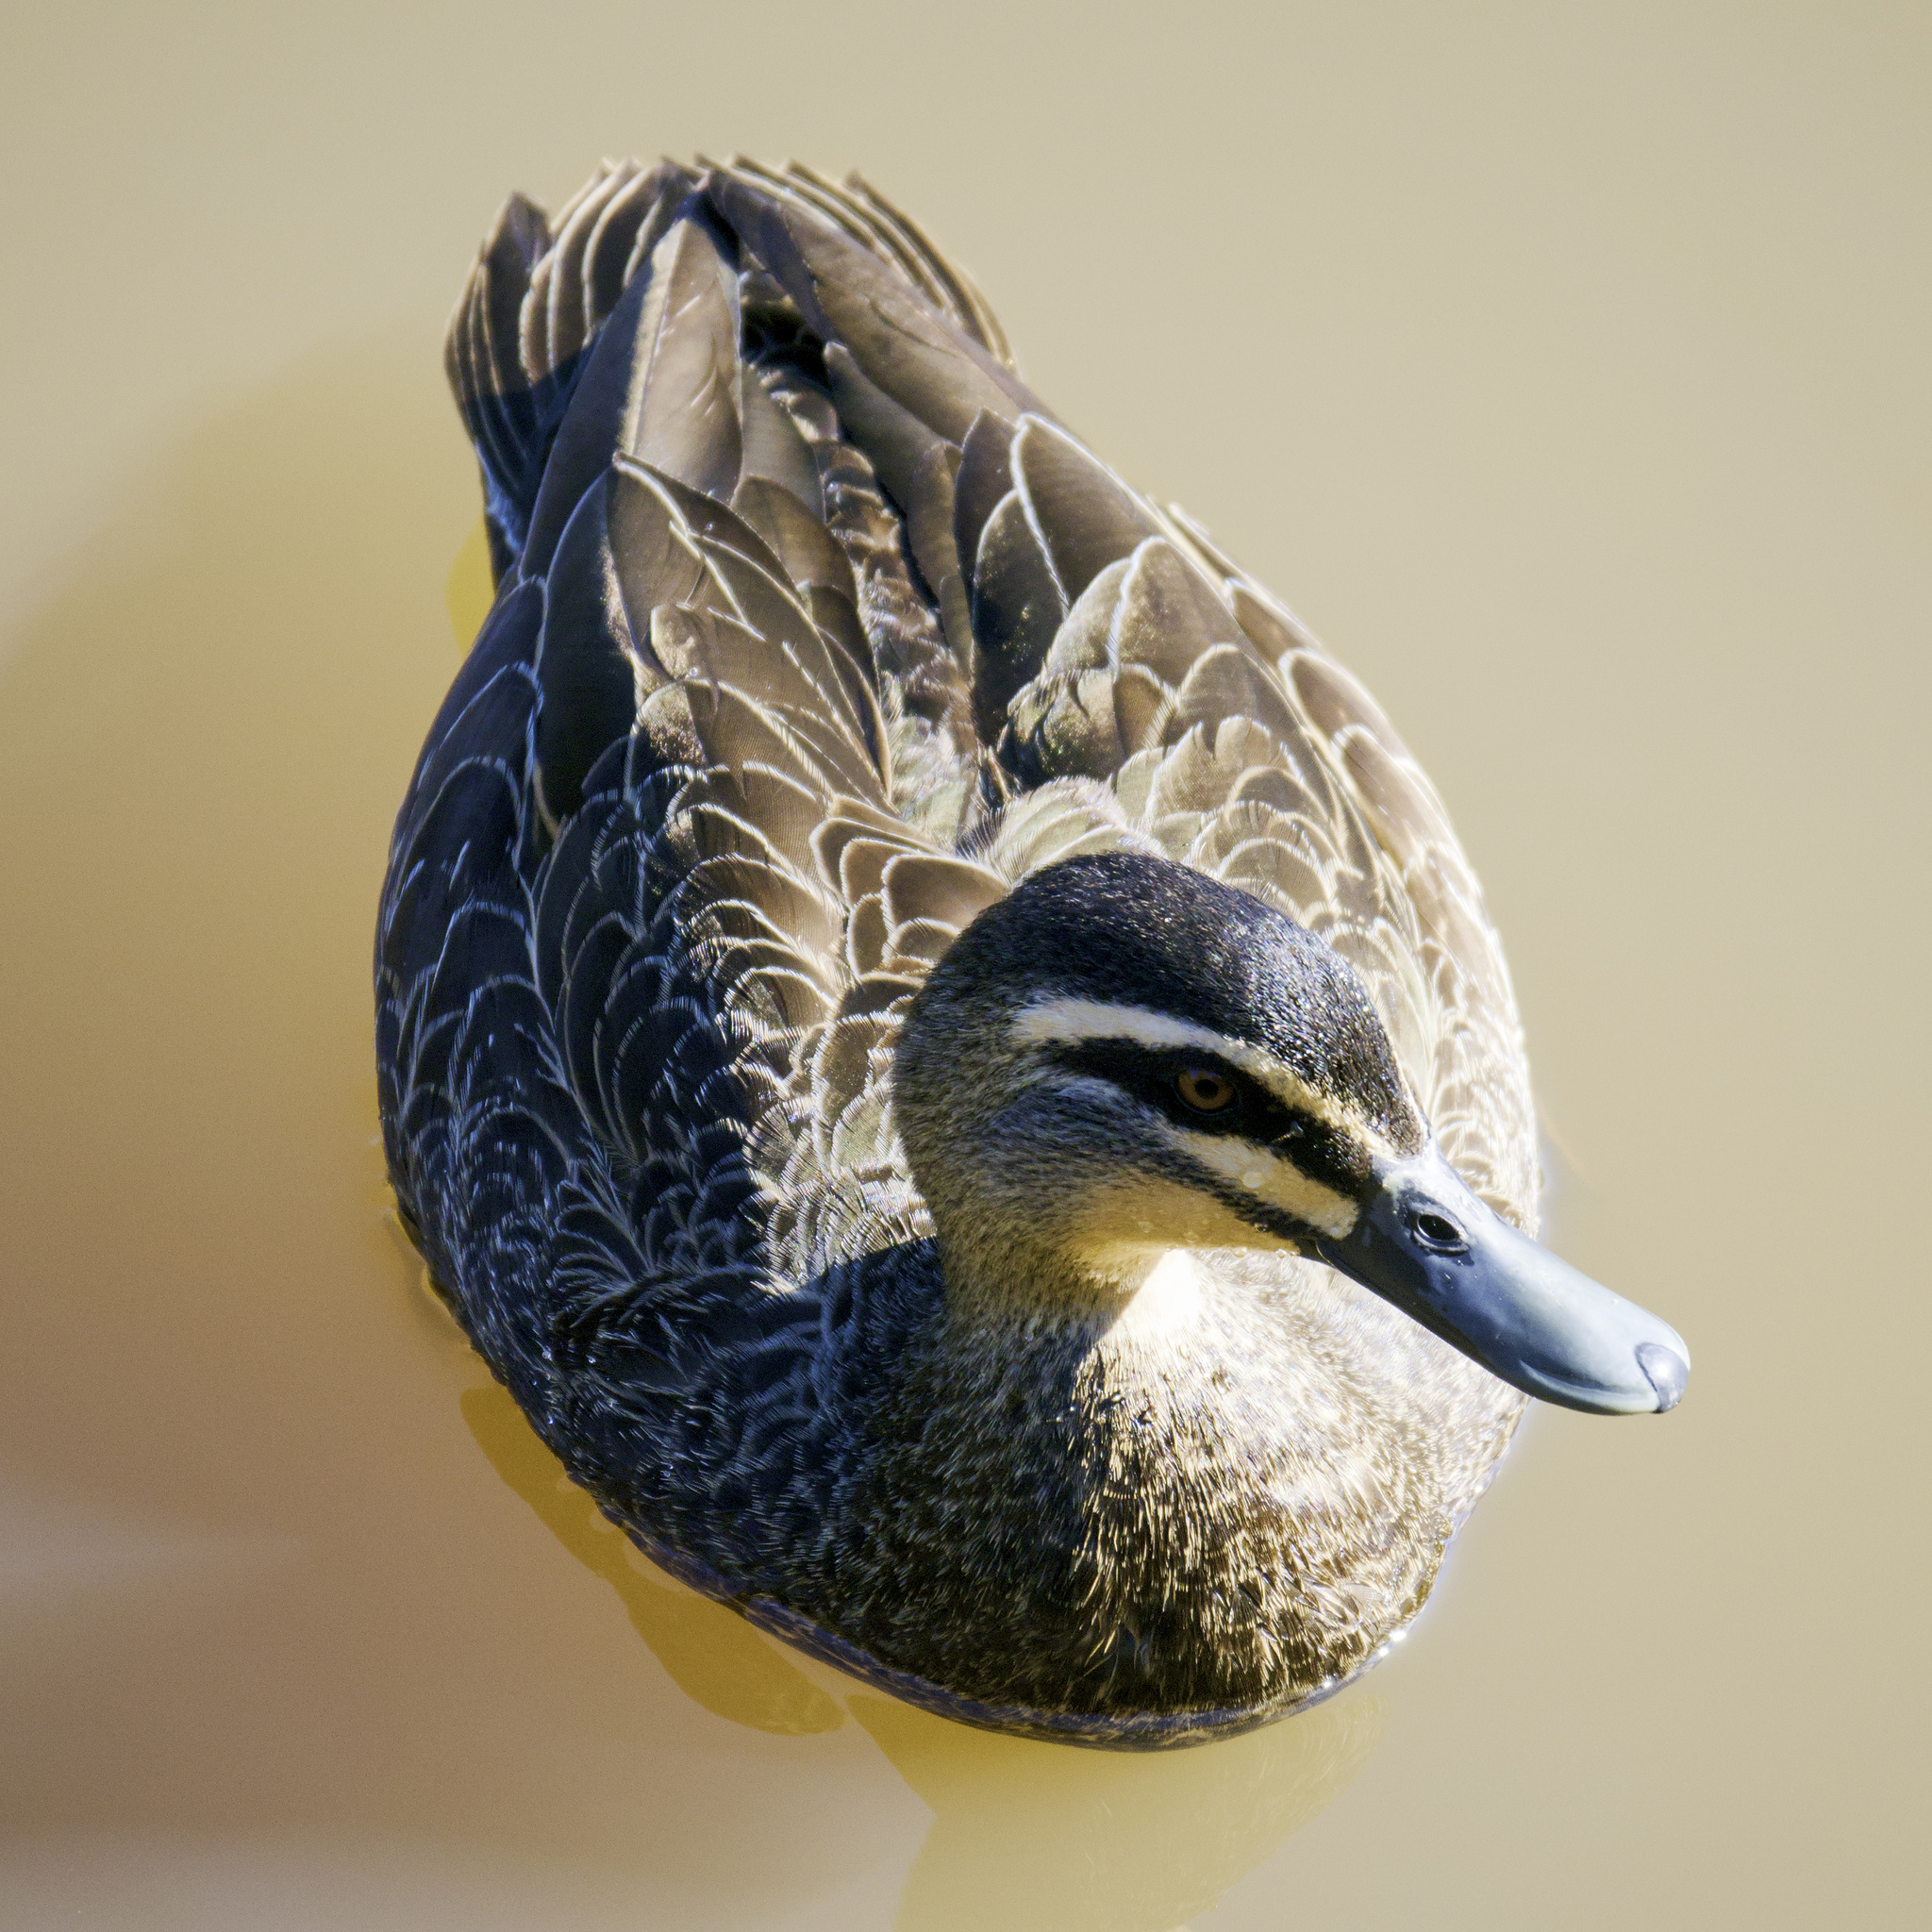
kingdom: Animalia
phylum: Chordata
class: Aves
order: Anseriformes
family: Anatidae
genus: Anas
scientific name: Anas superciliosa
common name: Pacific black duck
